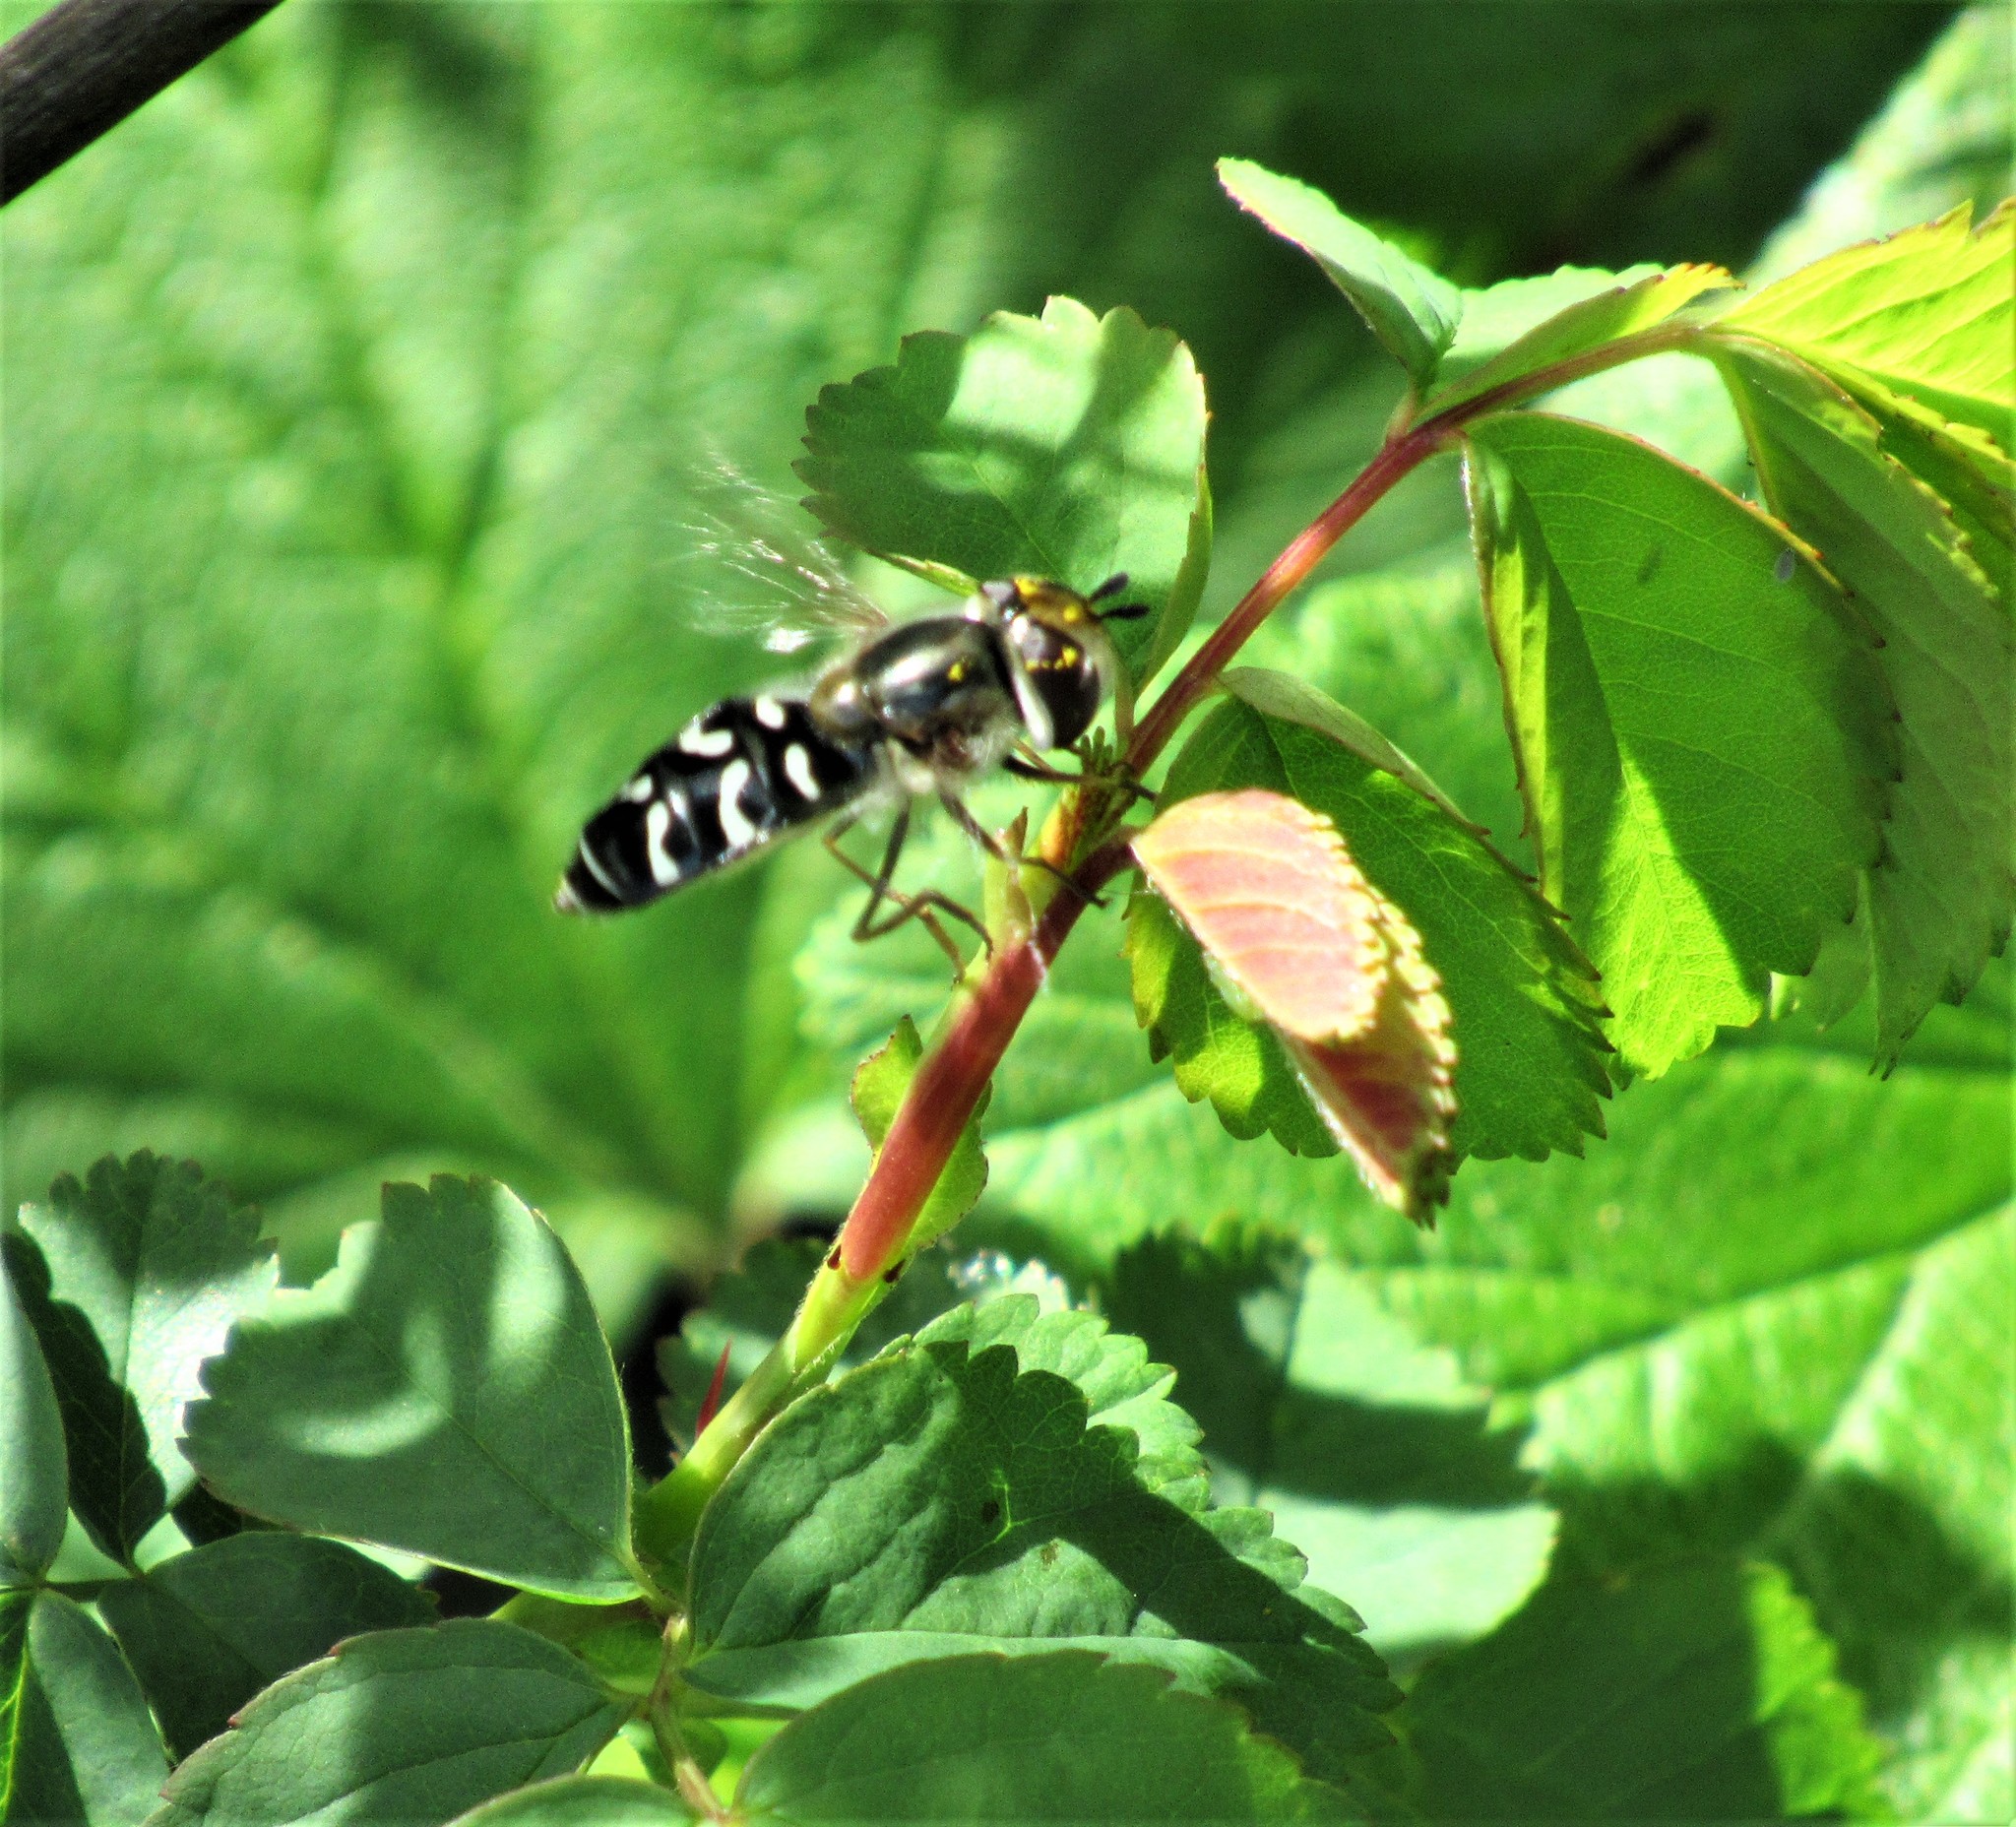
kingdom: Animalia
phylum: Arthropoda
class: Insecta
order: Diptera
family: Syrphidae
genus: Scaeva
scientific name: Scaeva affinis
